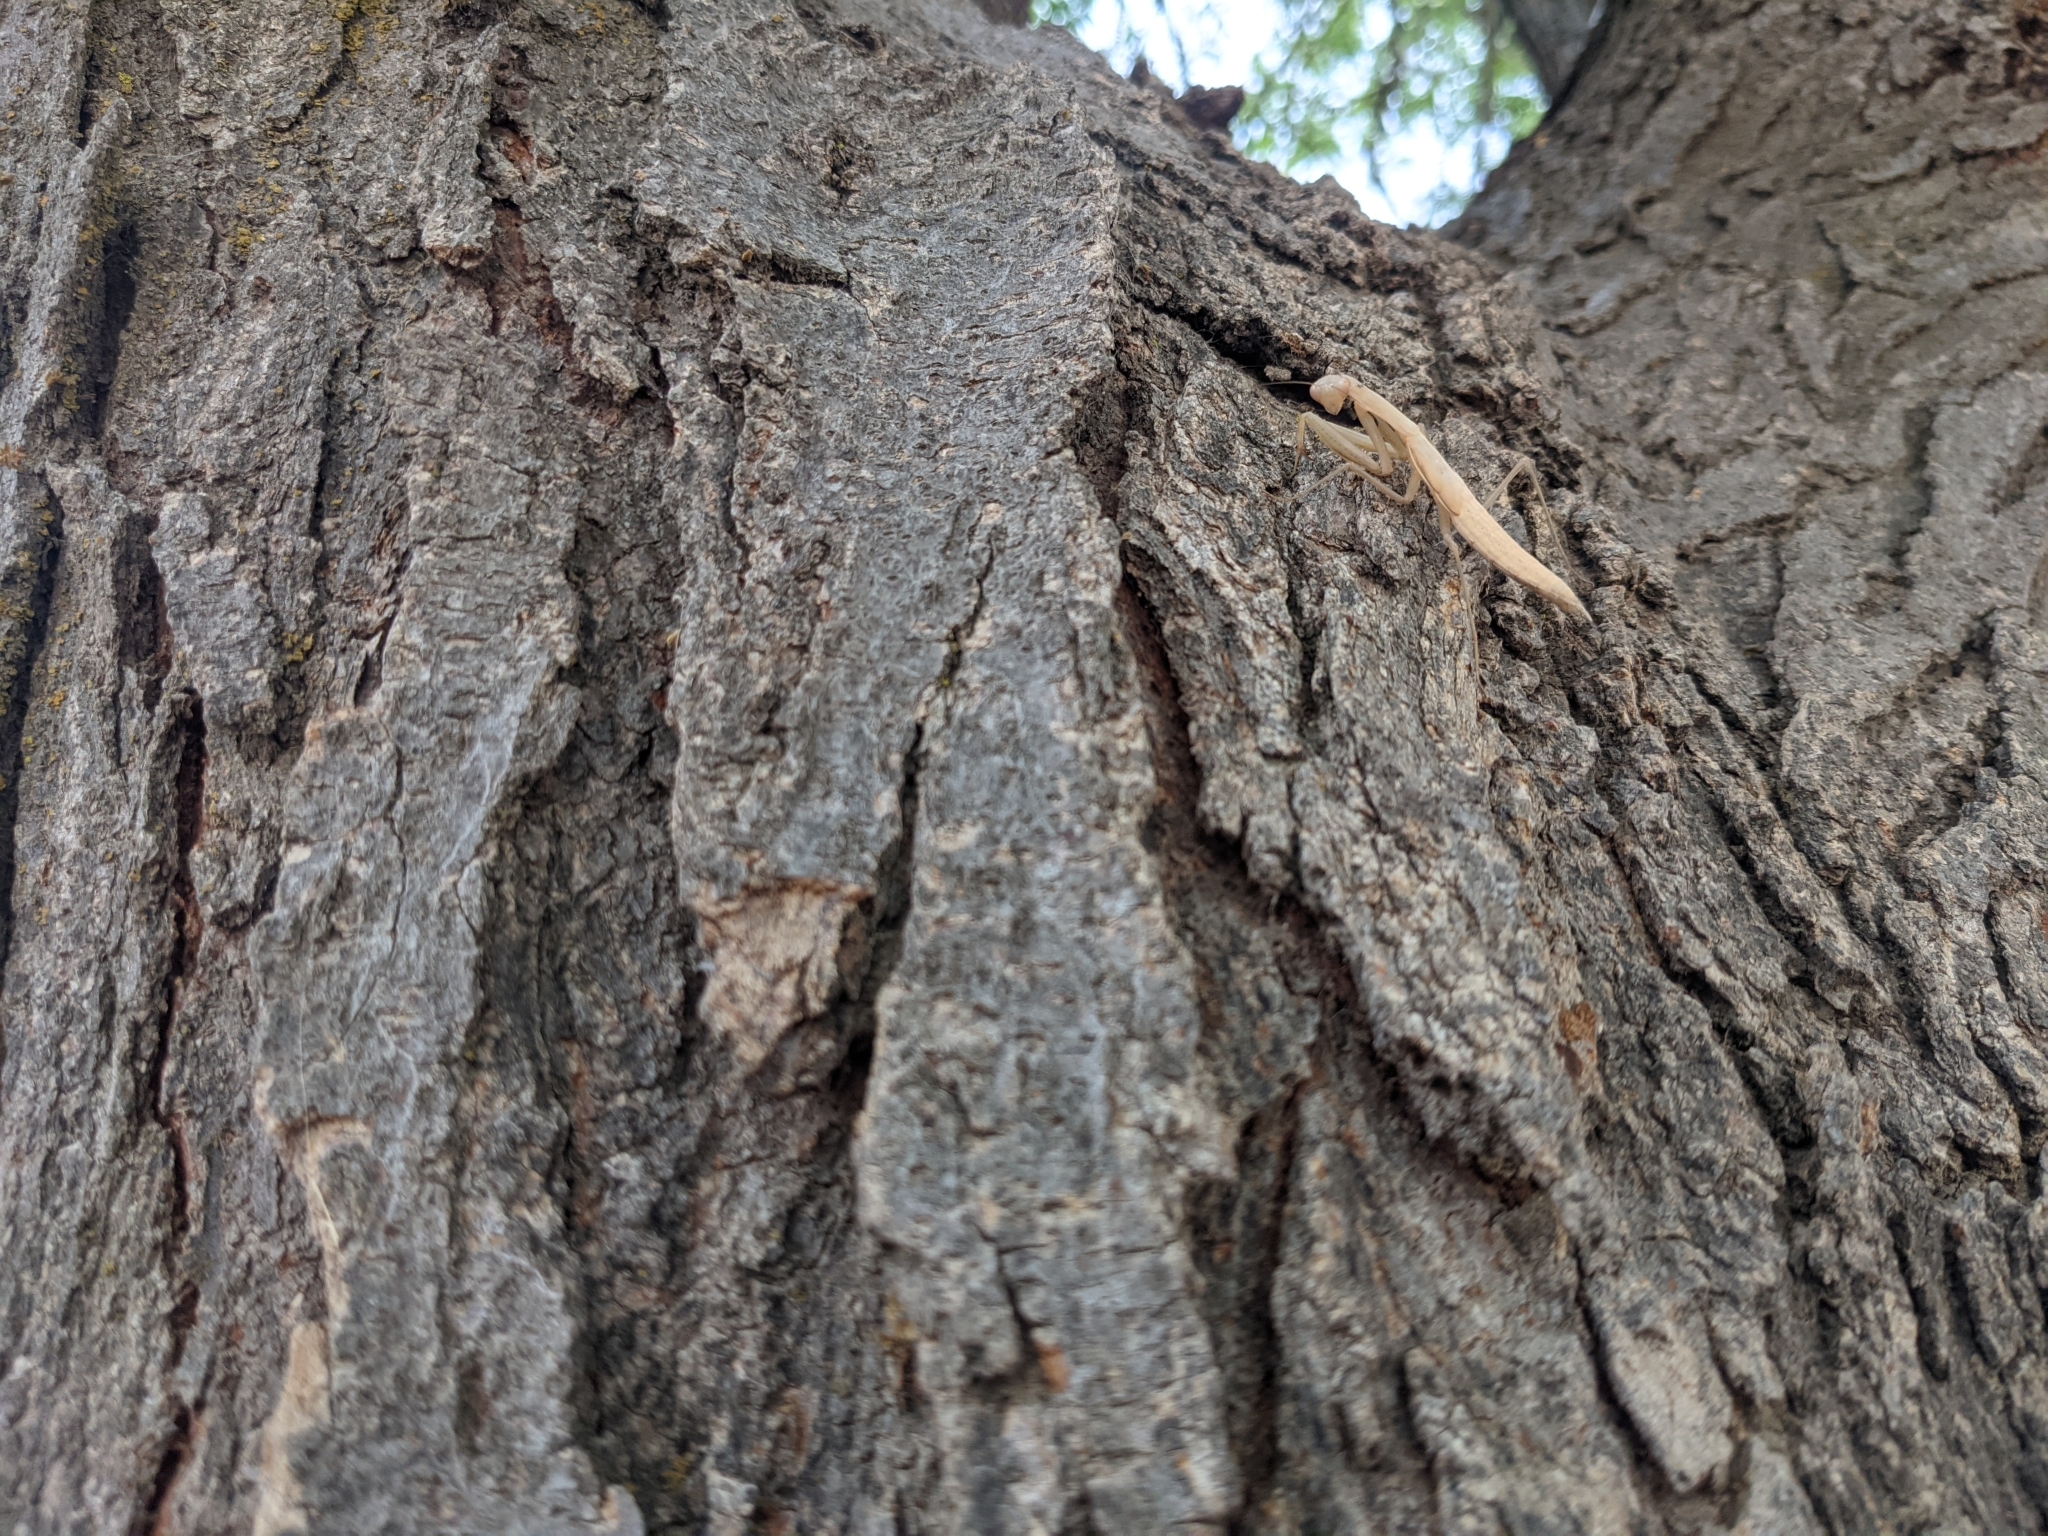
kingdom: Animalia
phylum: Arthropoda
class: Insecta
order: Mantodea
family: Mantidae
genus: Mantis
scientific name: Mantis religiosa
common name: Praying mantis
